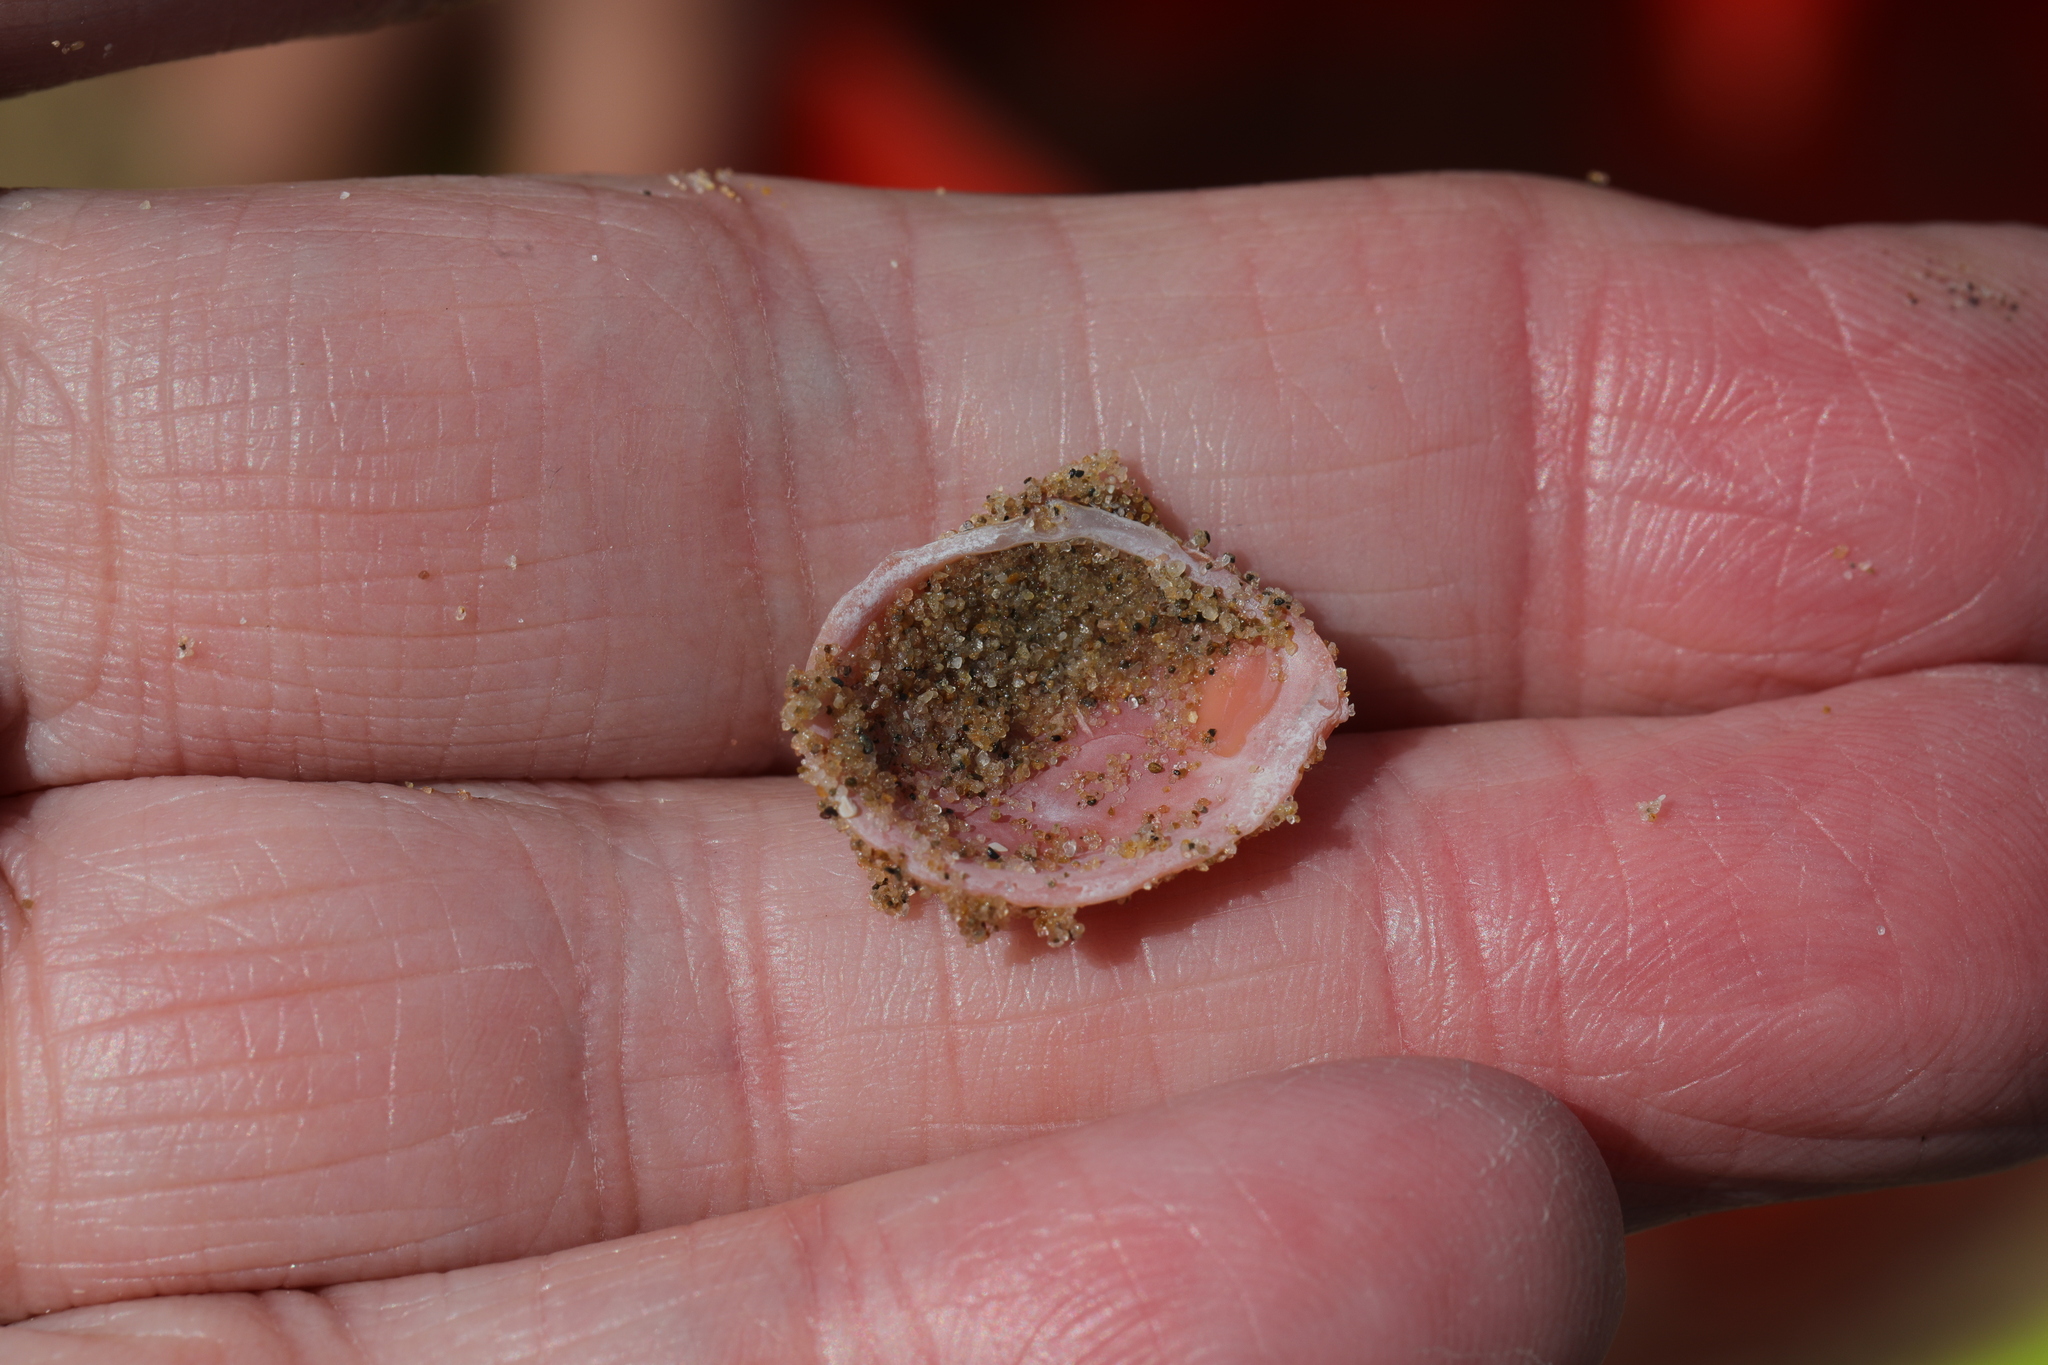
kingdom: Animalia
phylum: Mollusca
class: Bivalvia
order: Cardiida
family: Tellinidae
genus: Macoma
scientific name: Macoma balthica
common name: Baltic tellin
